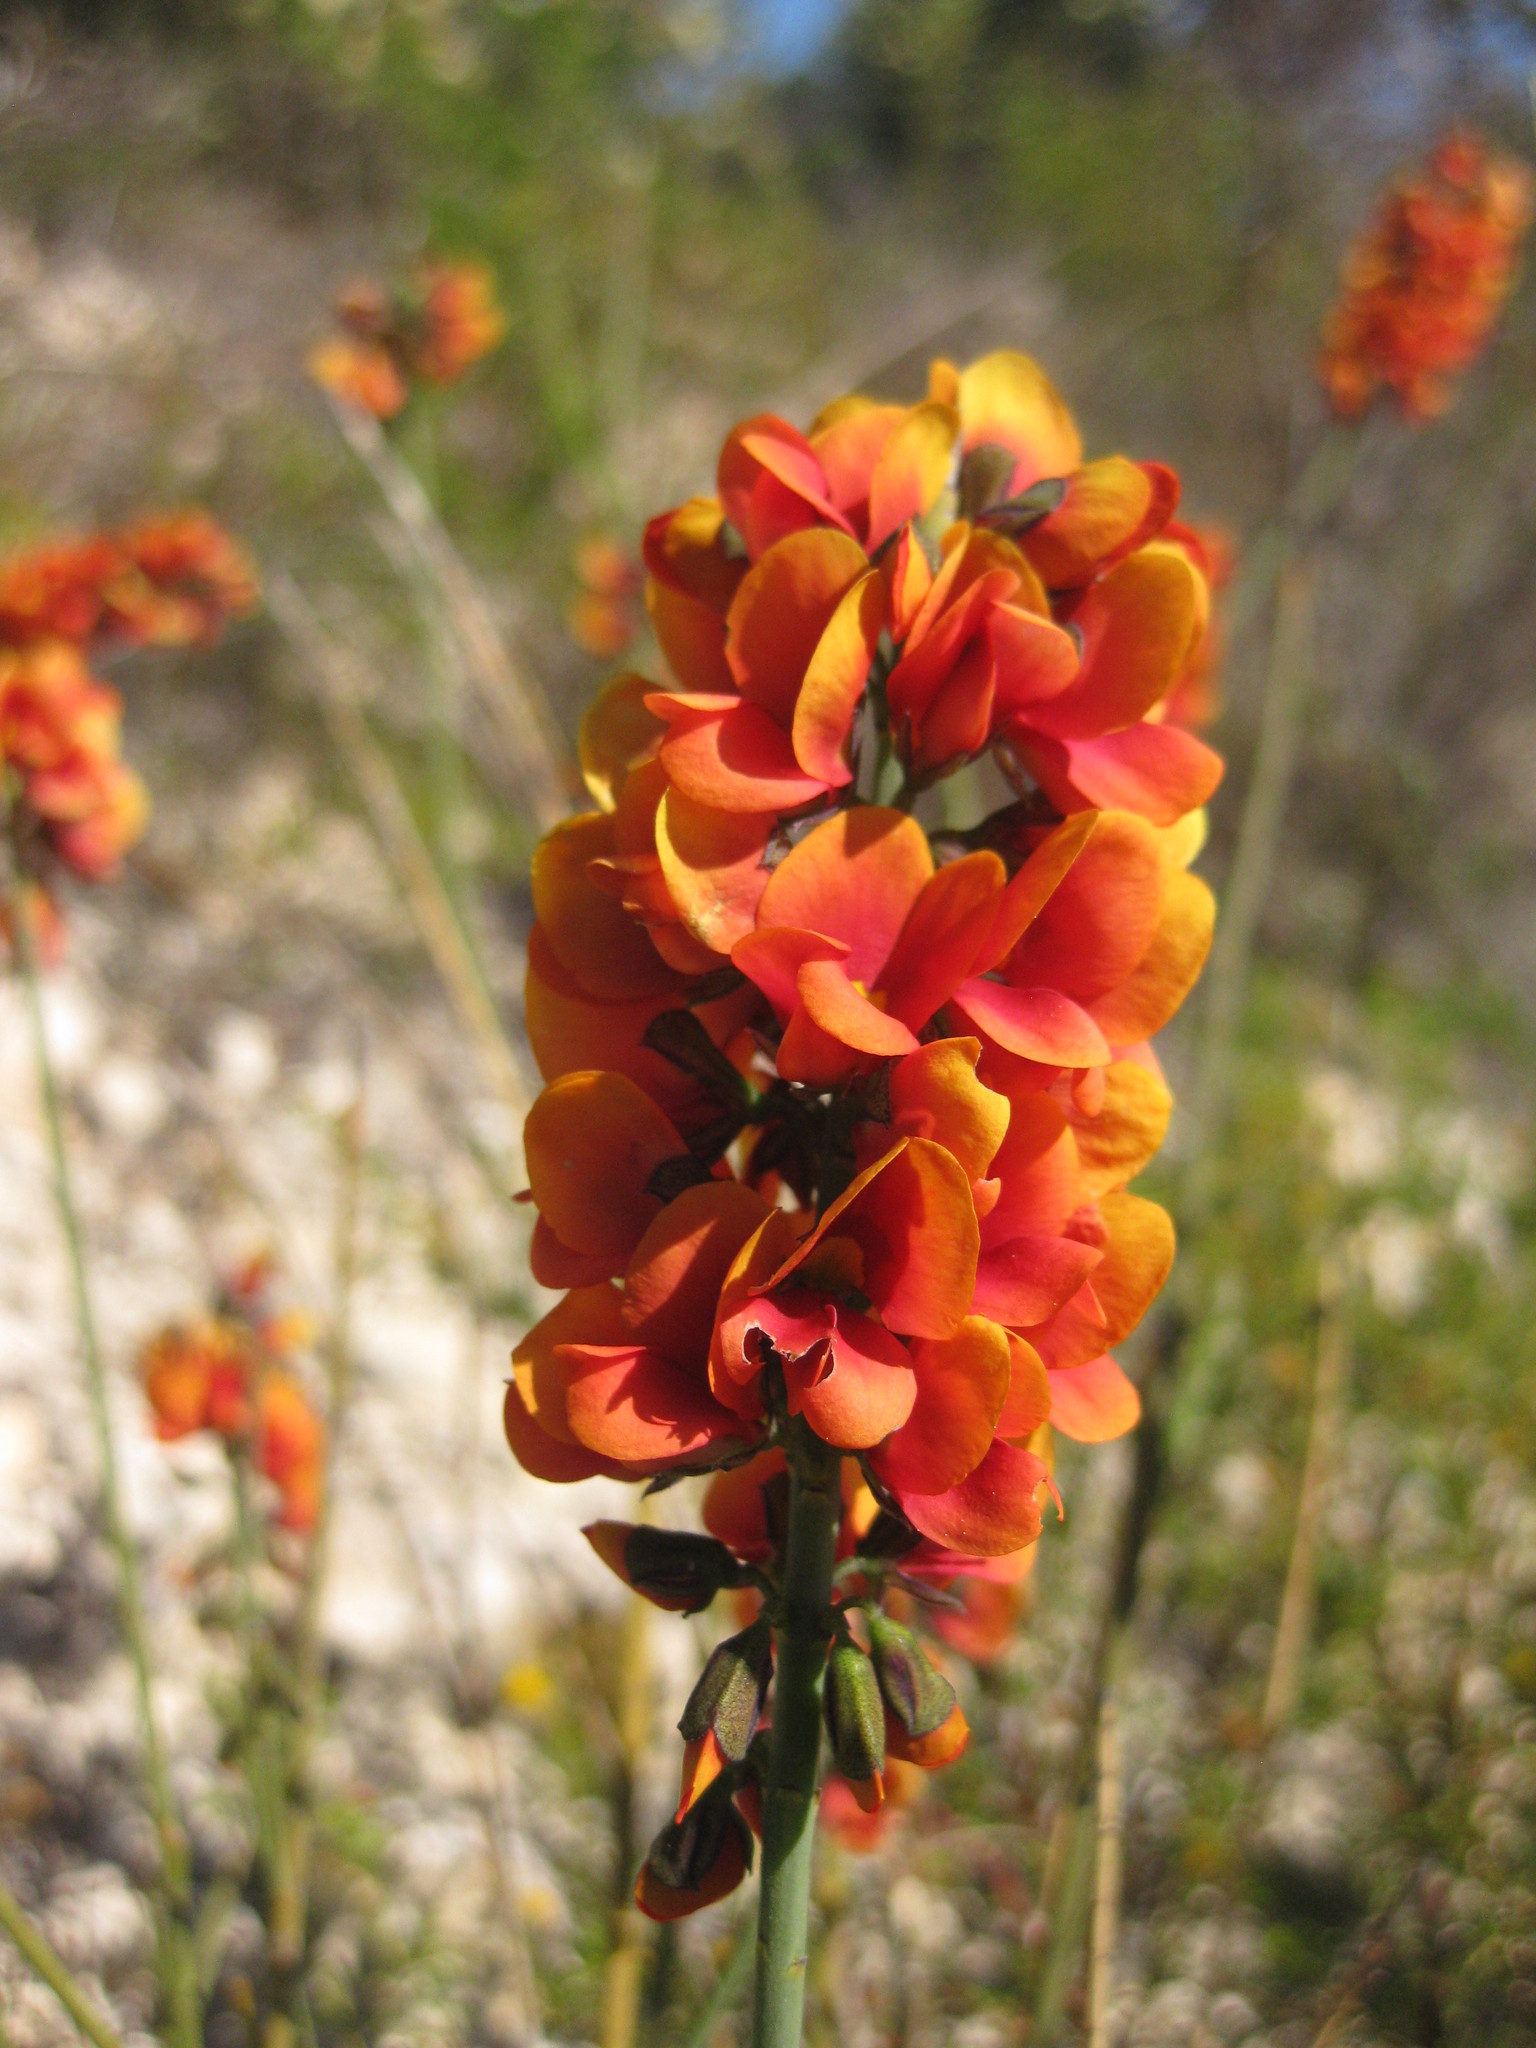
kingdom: Plantae
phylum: Tracheophyta
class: Magnoliopsida
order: Fabales
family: Fabaceae
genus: Sphaerolobium
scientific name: Sphaerolobium drummondii
